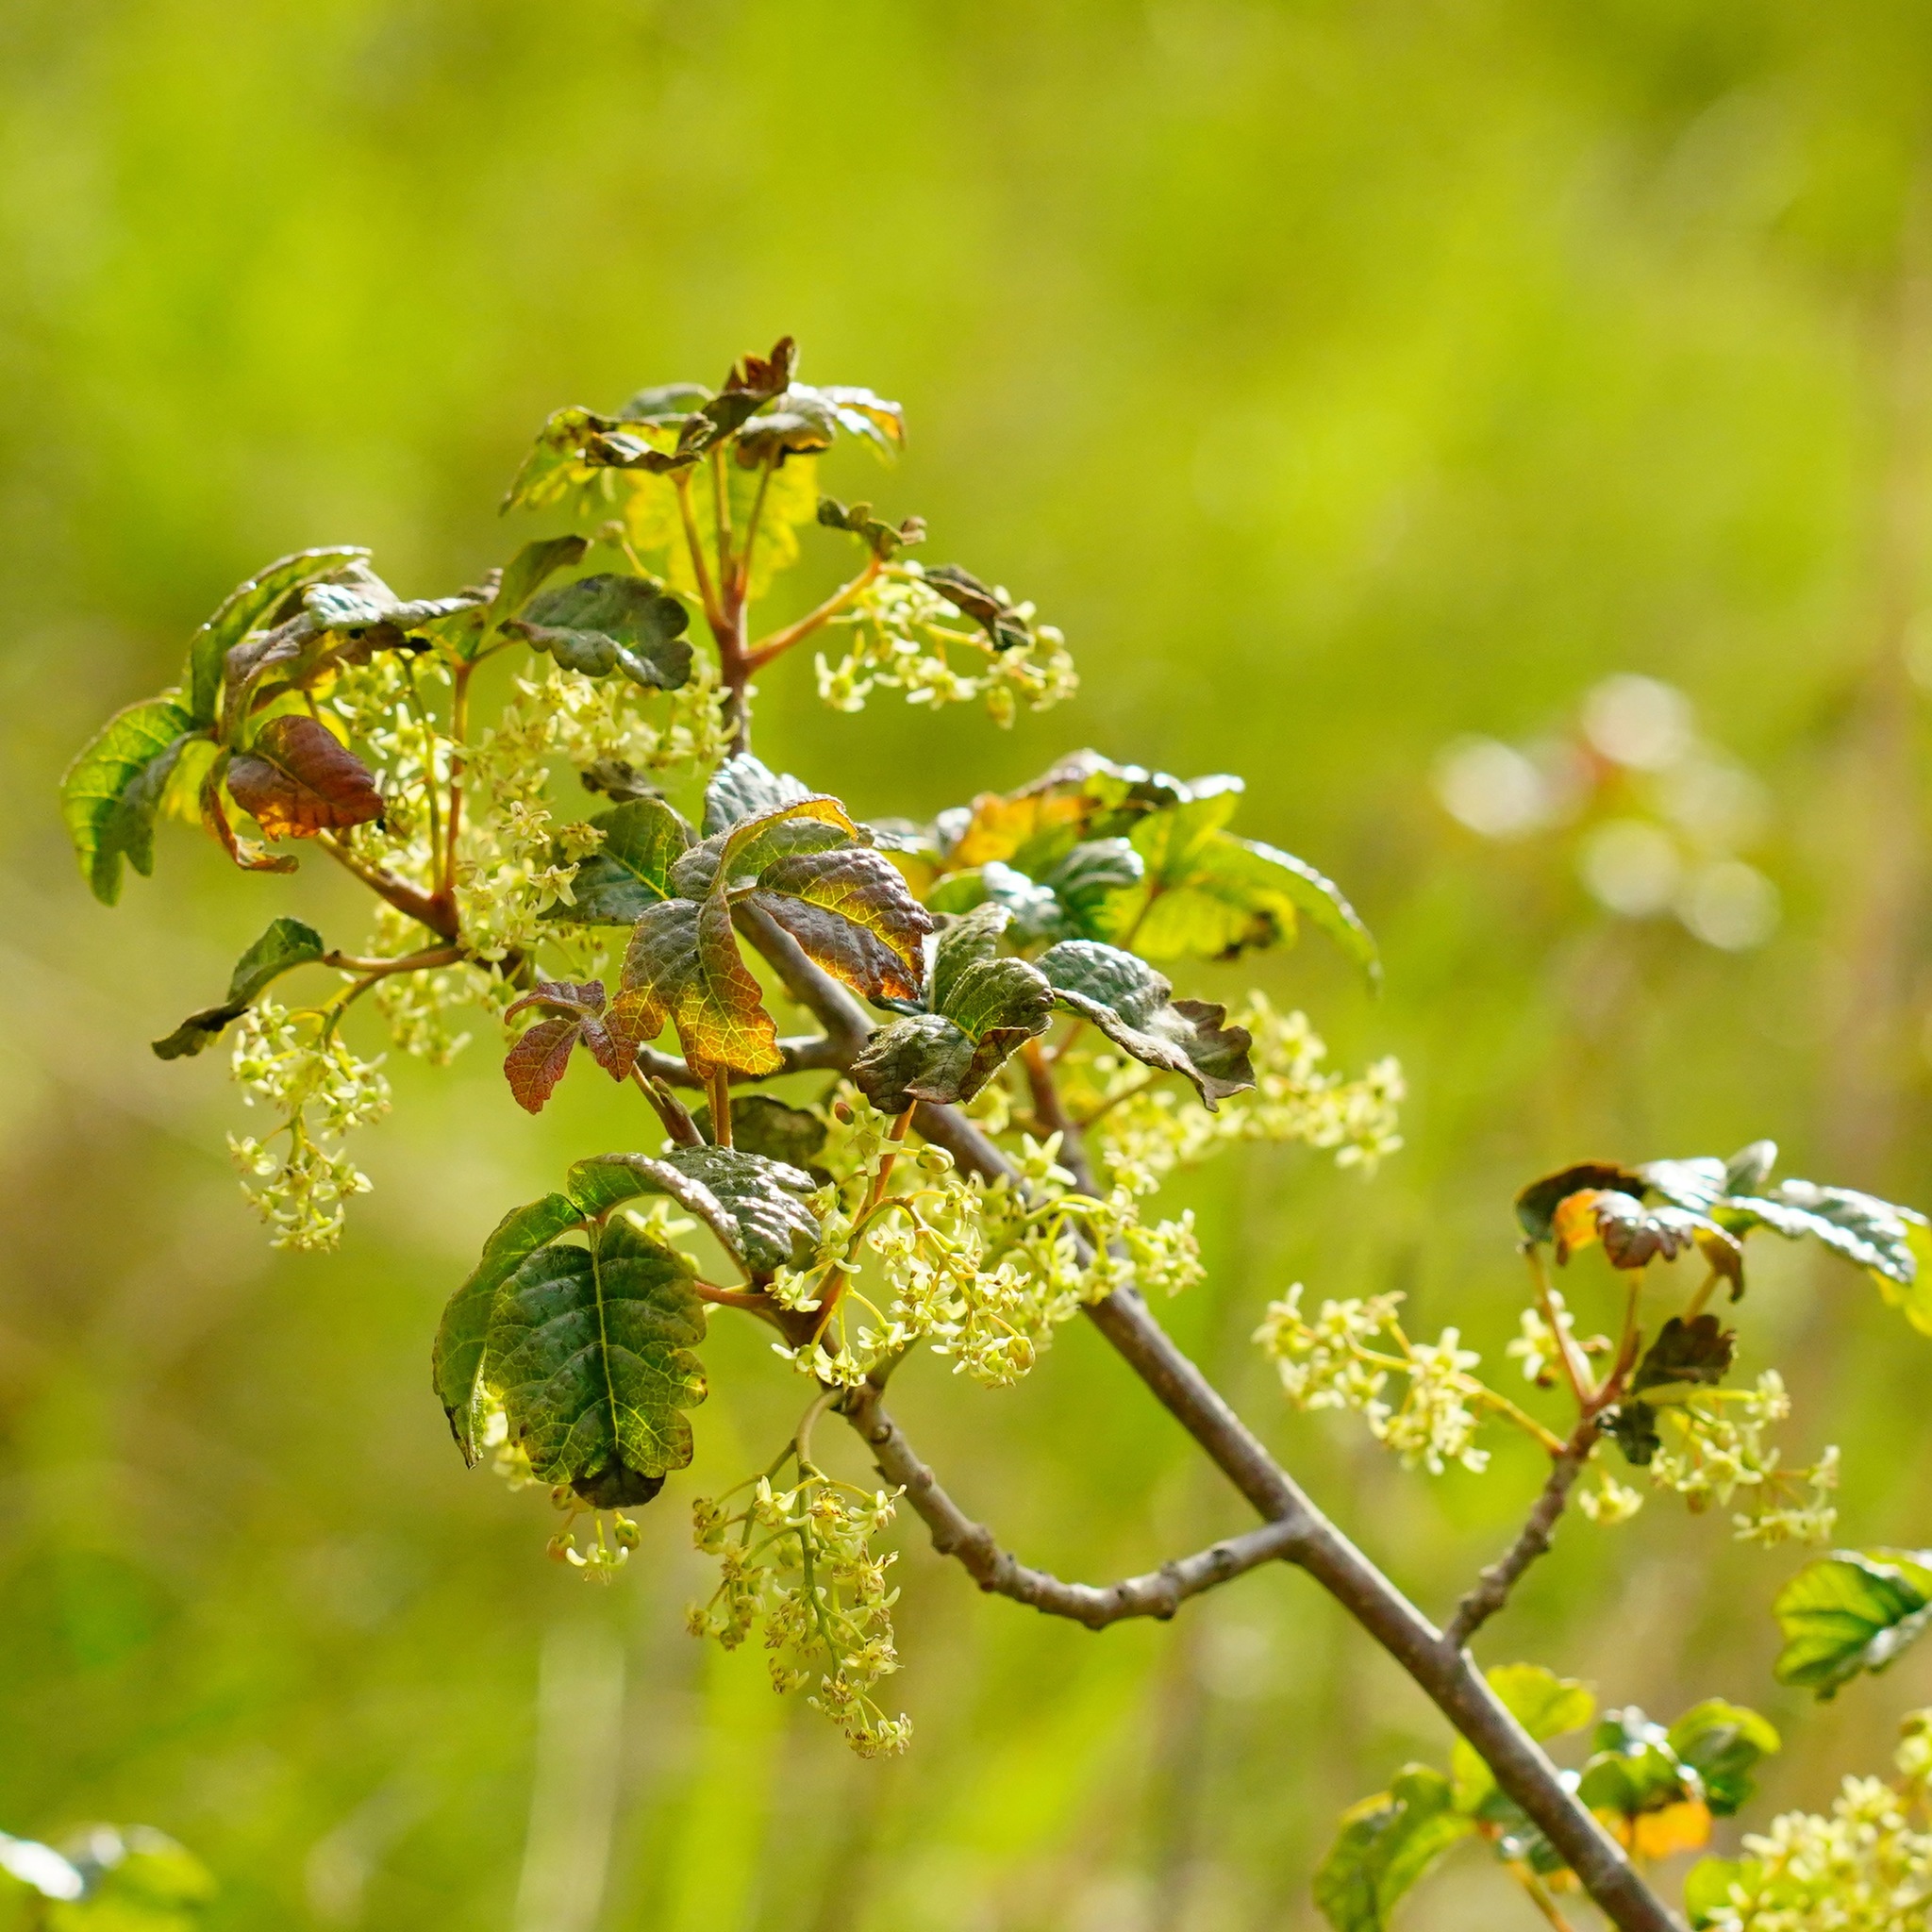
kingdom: Plantae
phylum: Tracheophyta
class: Magnoliopsida
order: Sapindales
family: Anacardiaceae
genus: Toxicodendron
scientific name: Toxicodendron diversilobum
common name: Pacific poison-oak
